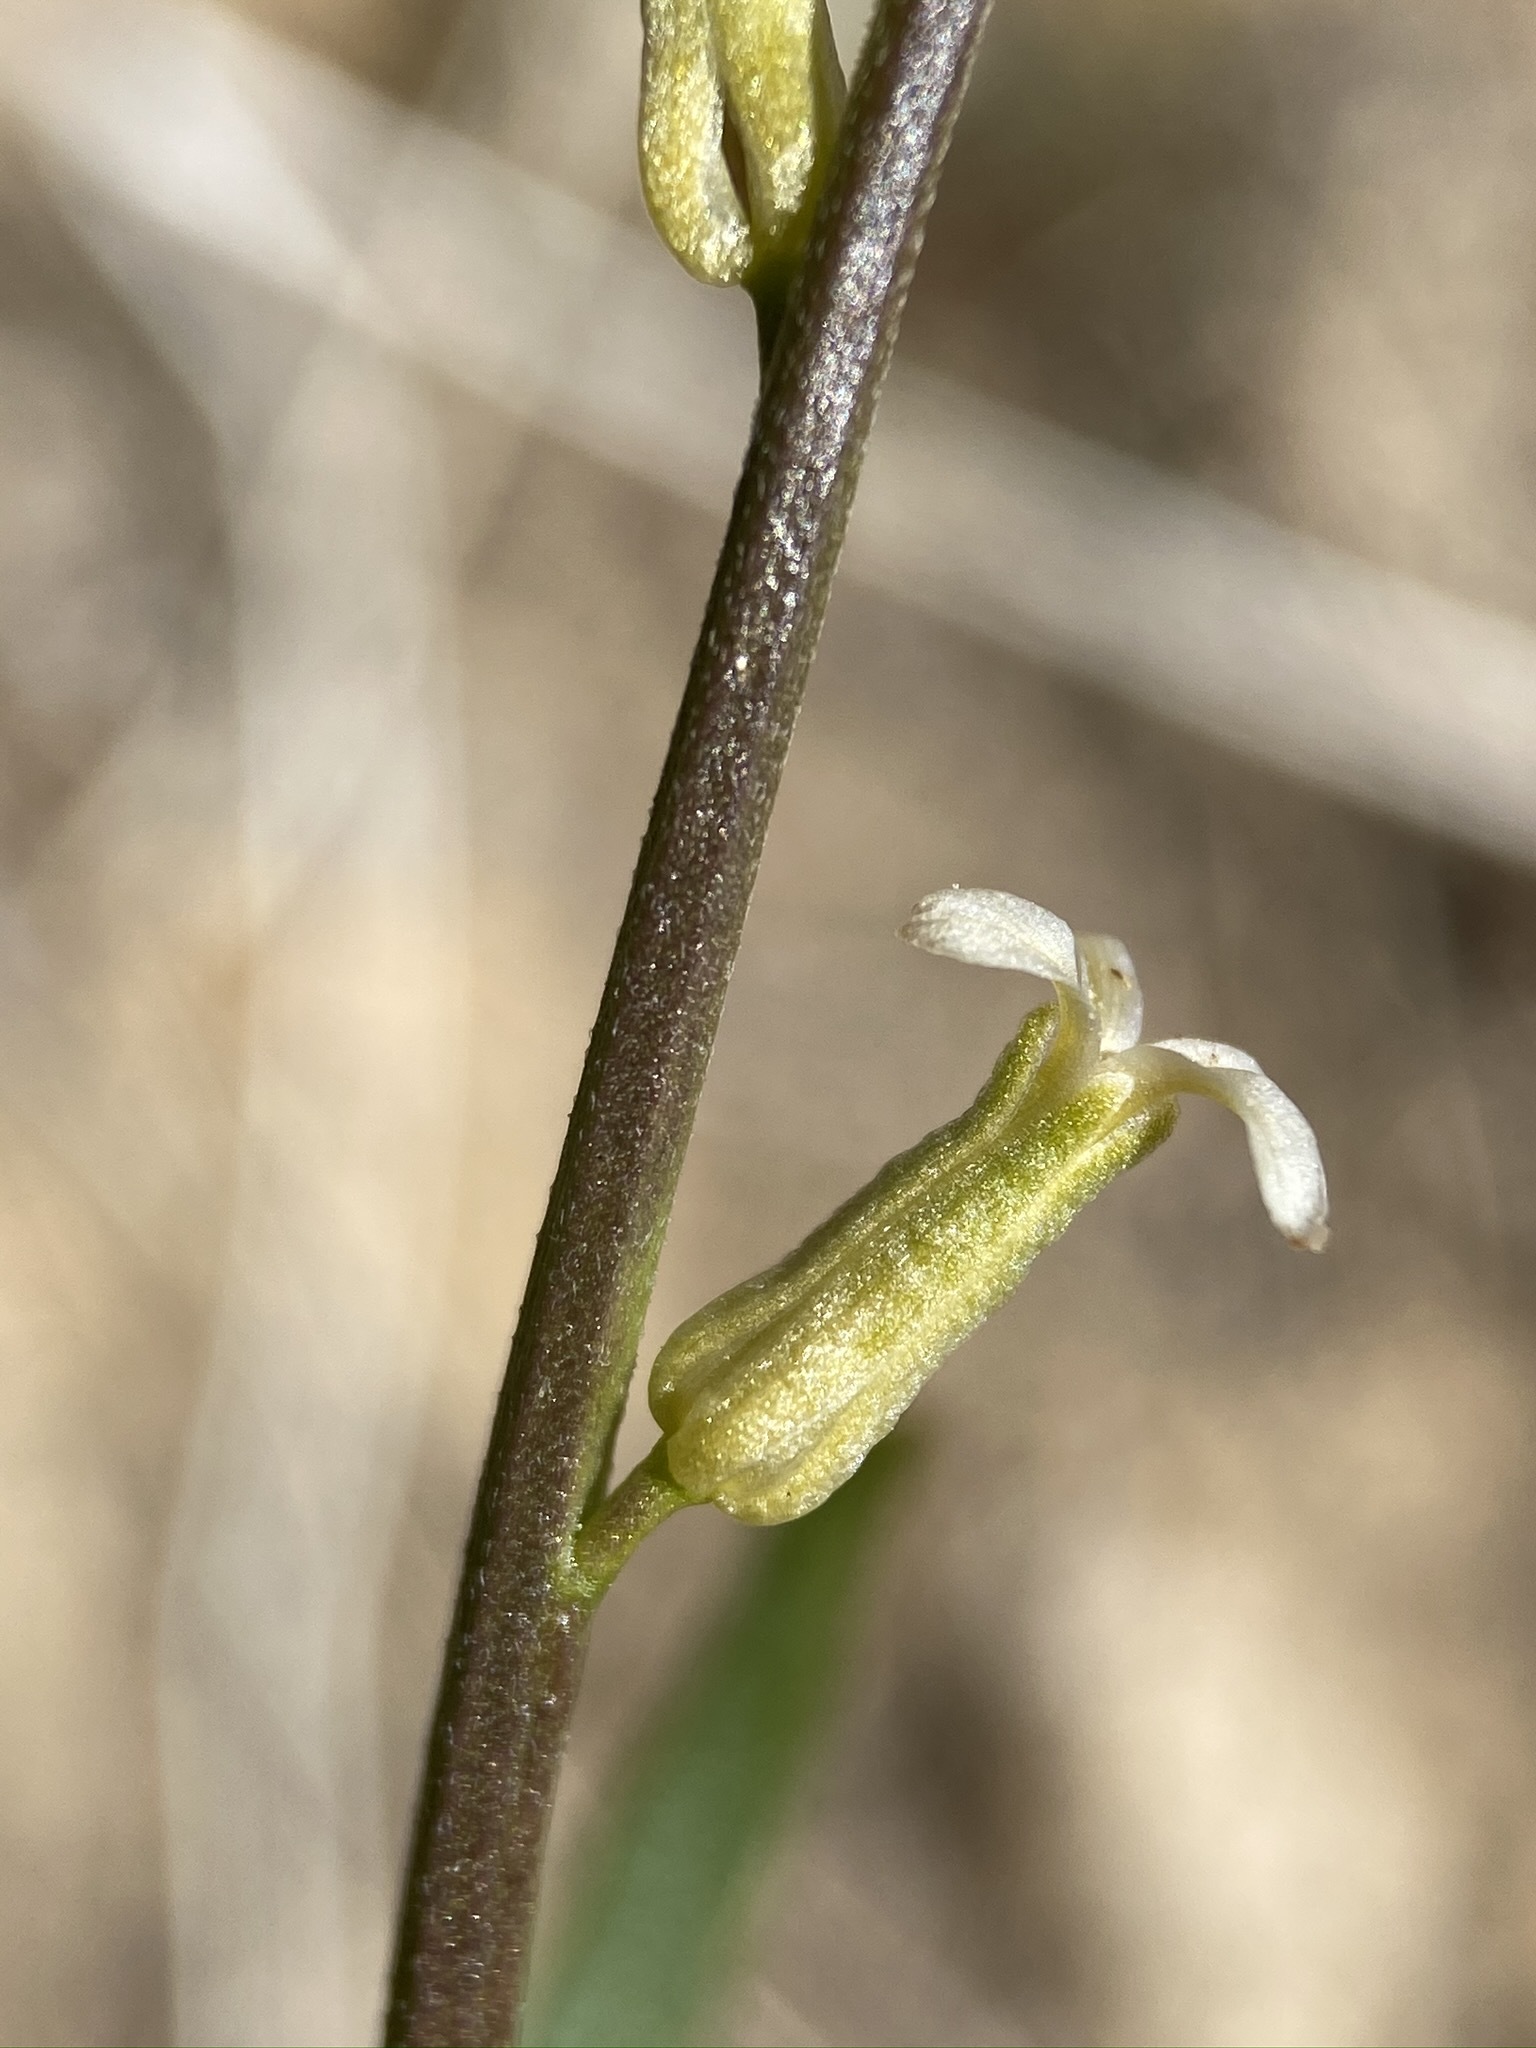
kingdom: Plantae
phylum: Tracheophyta
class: Magnoliopsida
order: Brassicales
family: Brassicaceae
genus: Streptanthus
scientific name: Streptanthus cooperi
